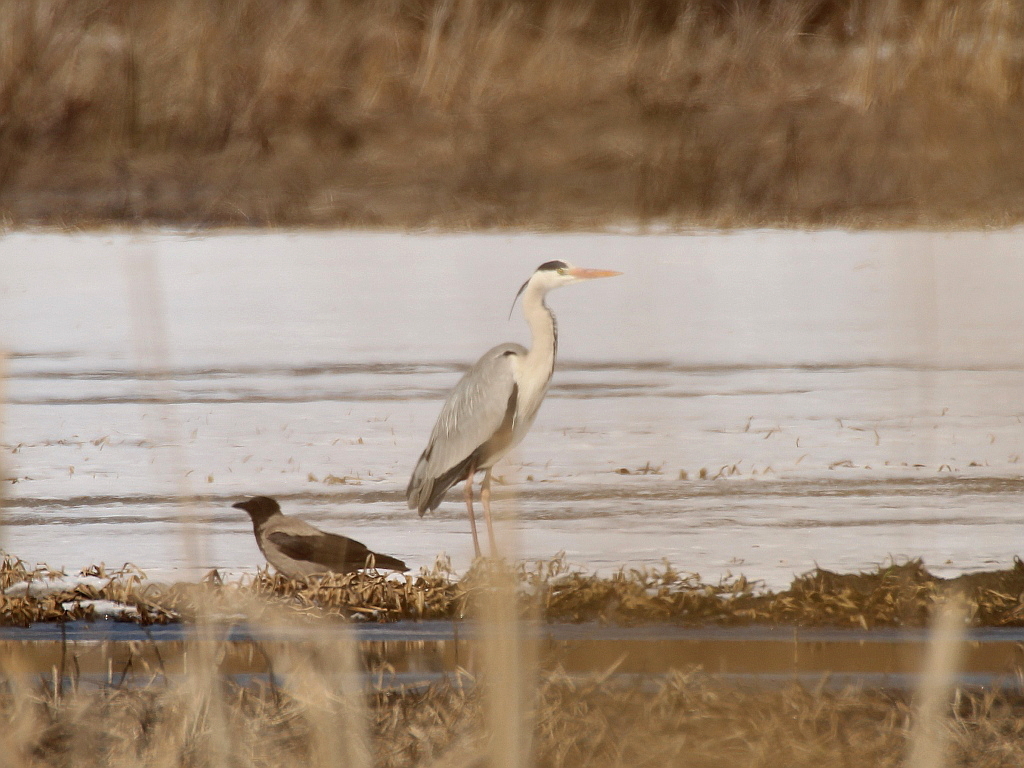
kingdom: Animalia
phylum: Chordata
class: Aves
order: Pelecaniformes
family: Ardeidae
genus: Ardea
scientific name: Ardea cinerea
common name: Grey heron
